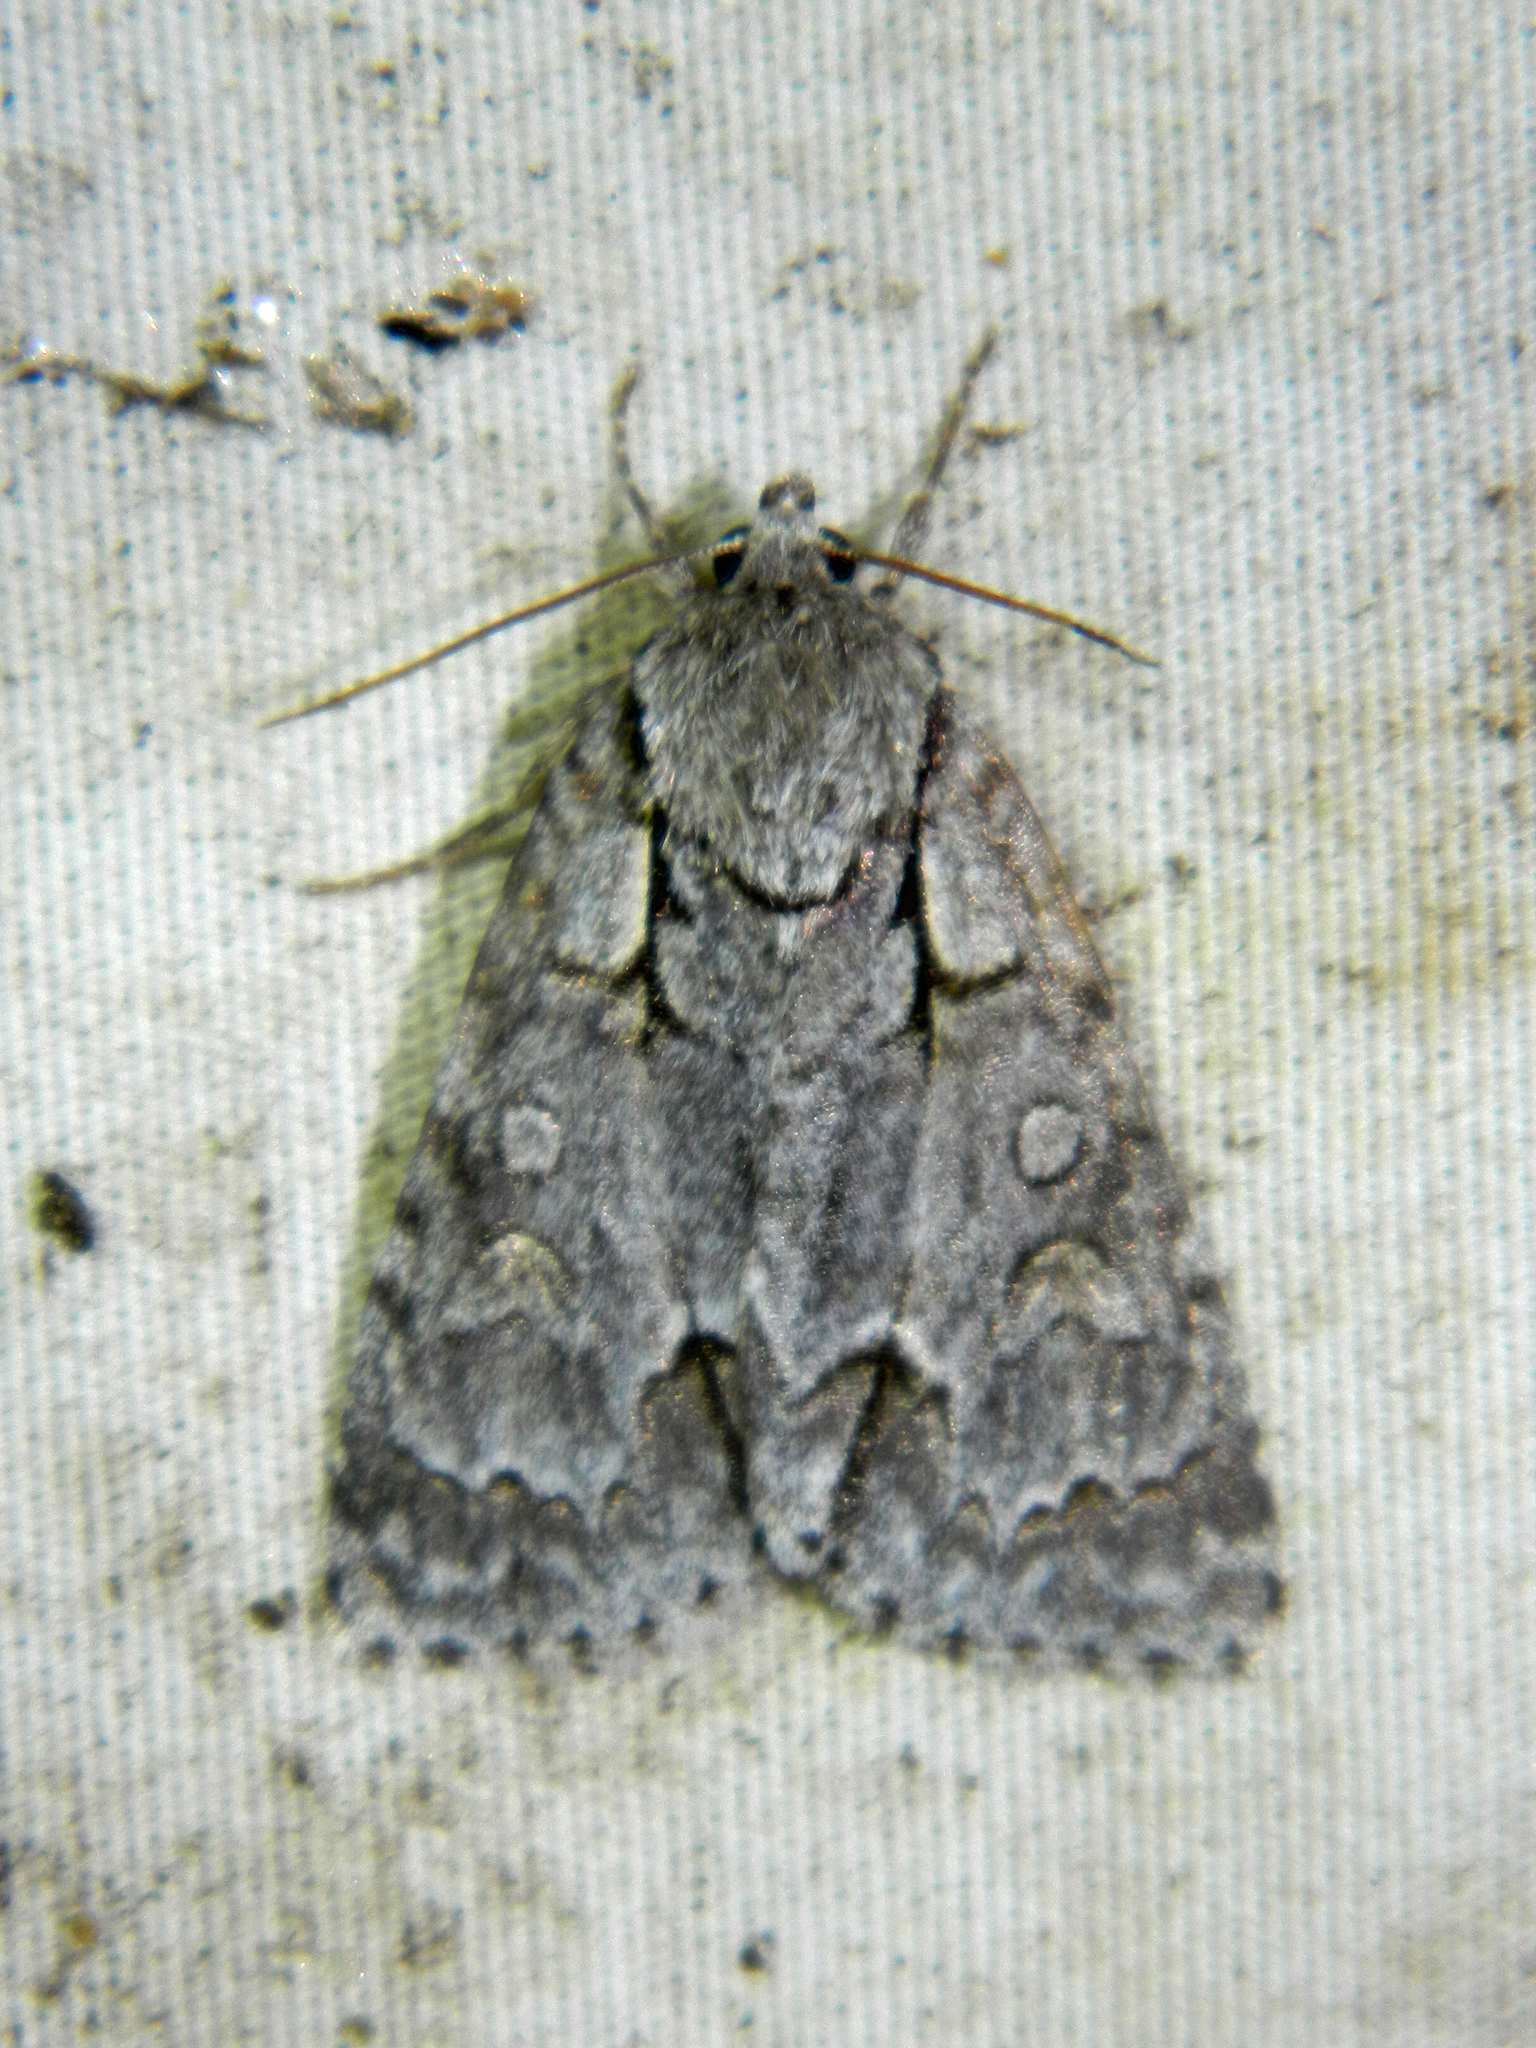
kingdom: Animalia
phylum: Arthropoda
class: Insecta
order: Lepidoptera
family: Noctuidae
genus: Acronicta
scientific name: Acronicta grisea
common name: Gray dagger
